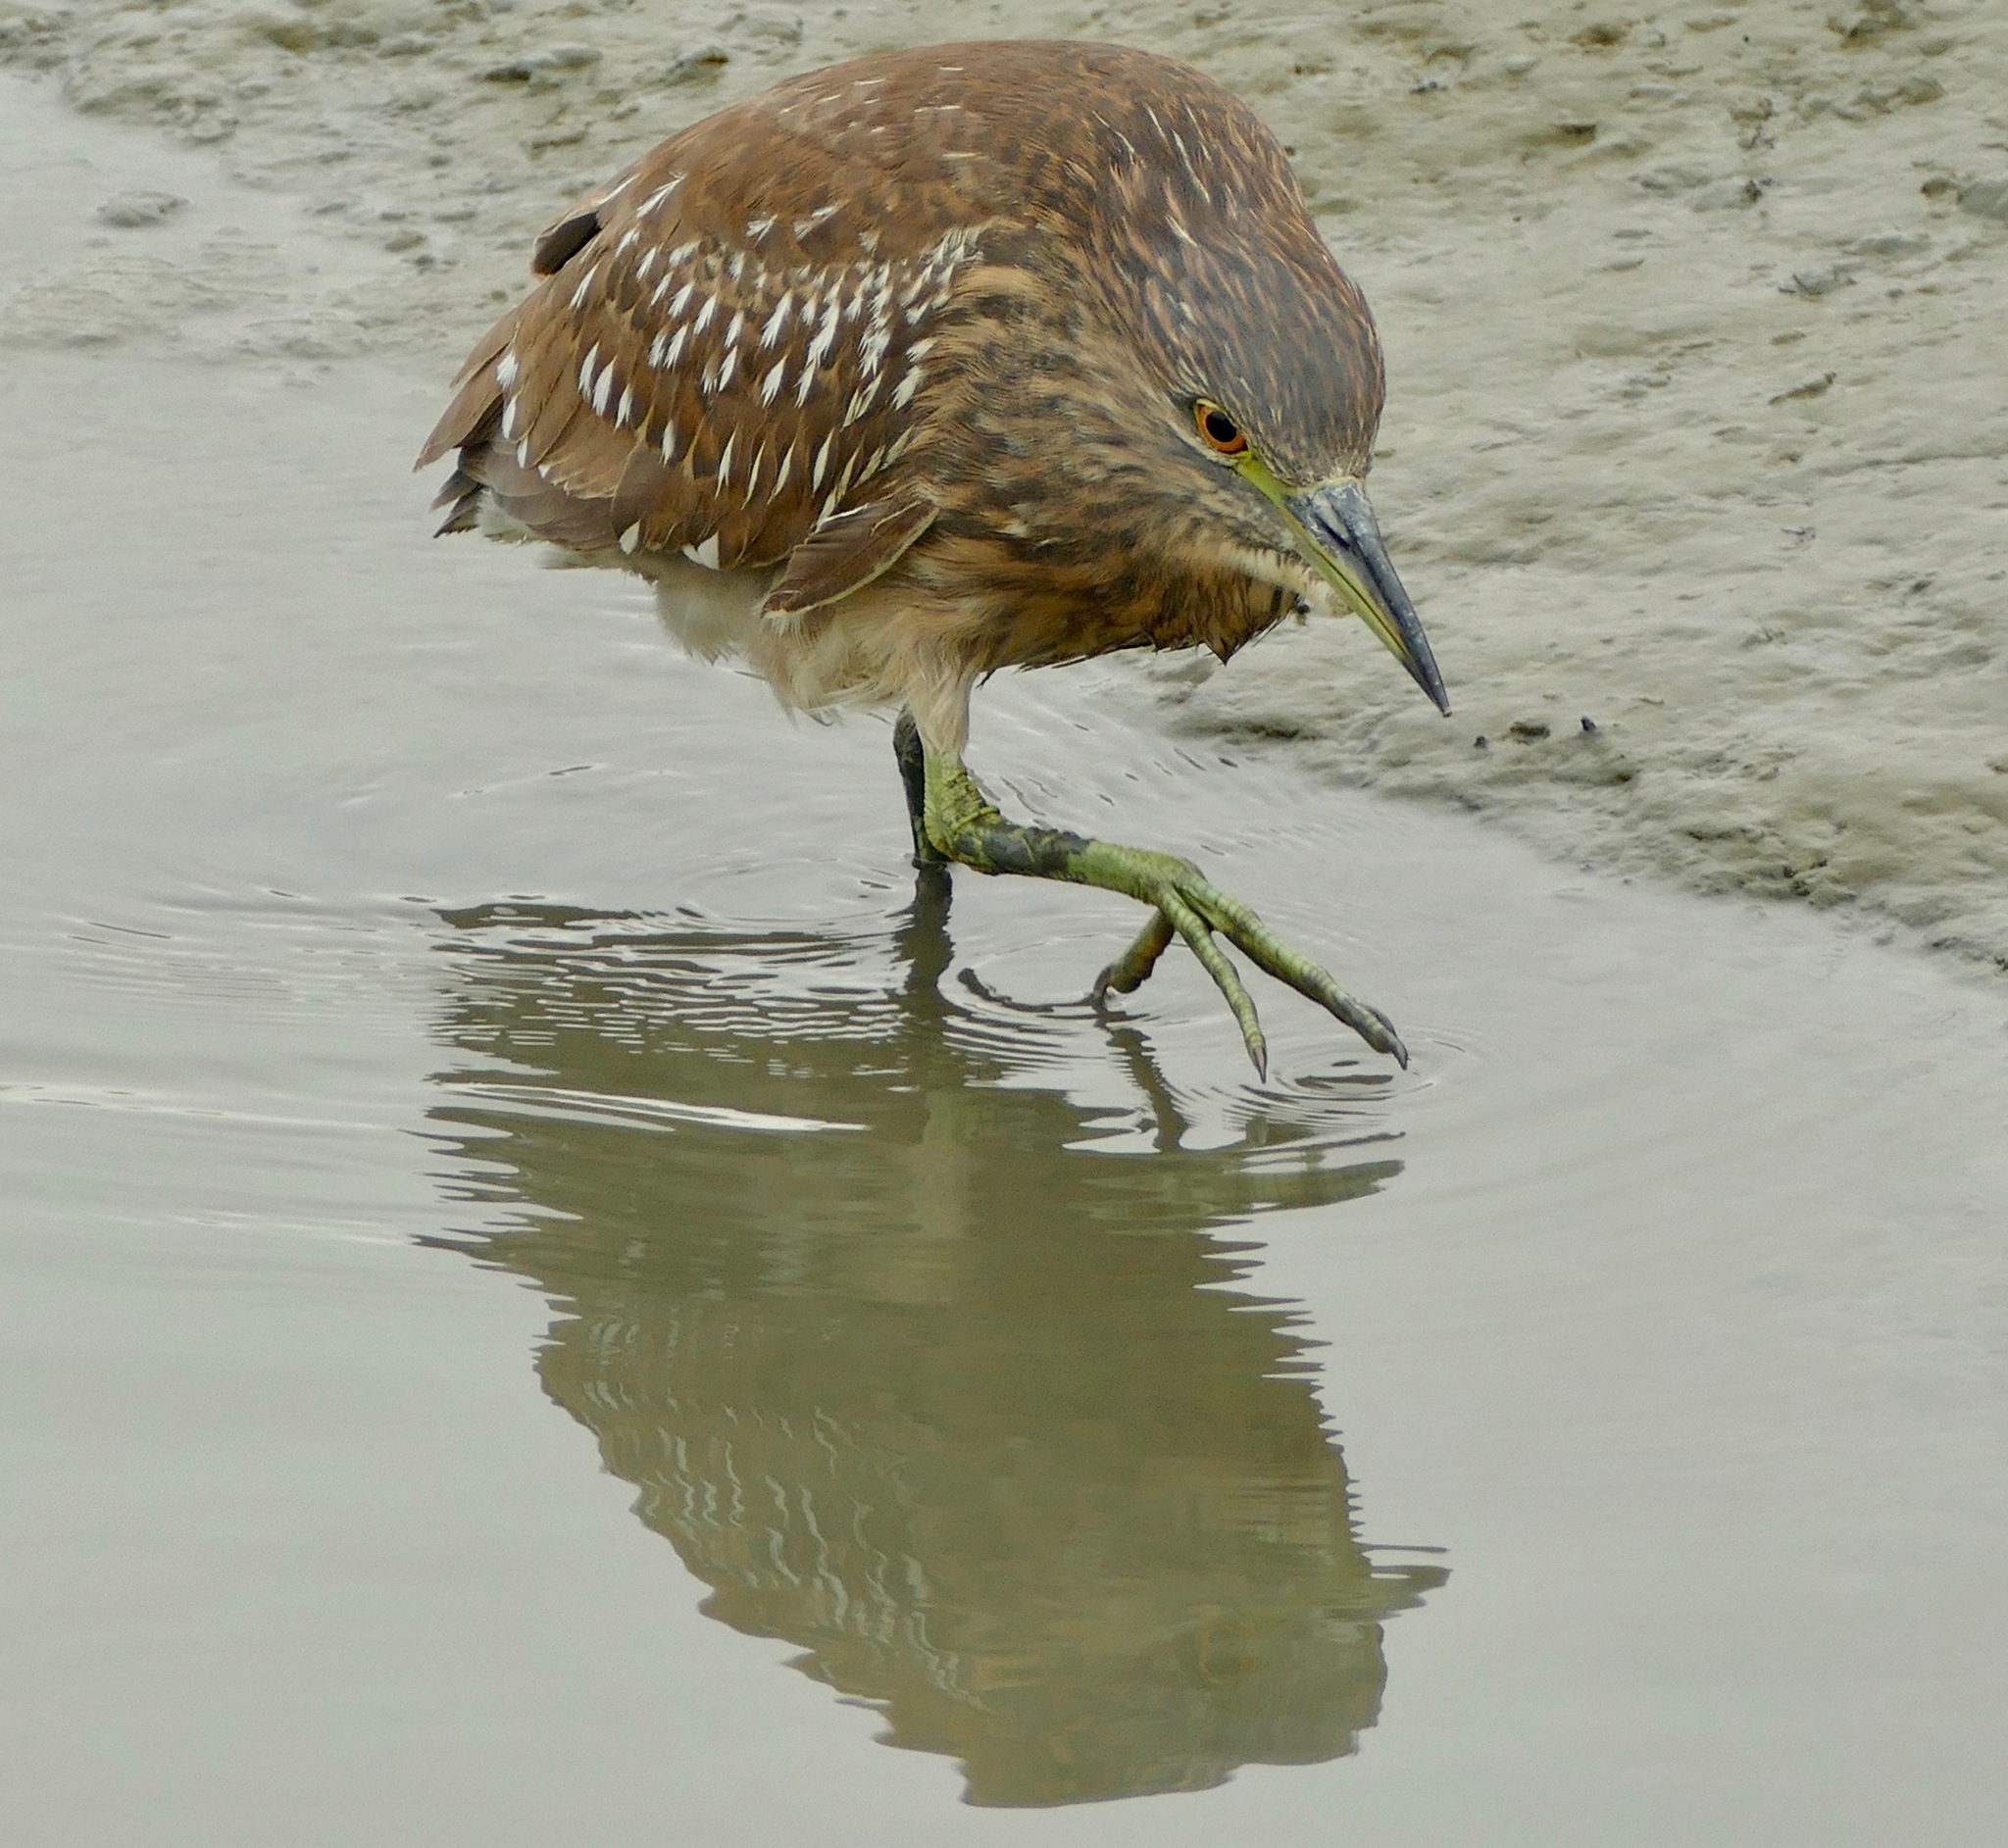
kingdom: Animalia
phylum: Chordata
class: Aves
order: Pelecaniformes
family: Ardeidae
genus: Nycticorax
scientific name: Nycticorax nycticorax
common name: Black-crowned night heron
